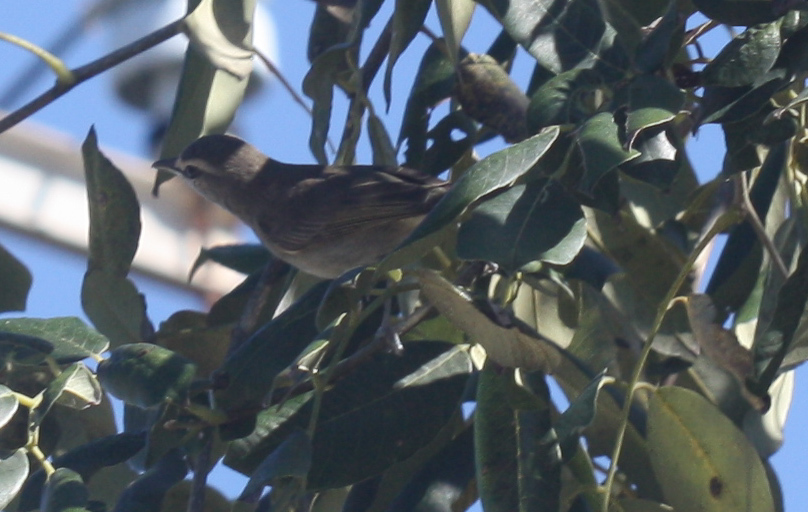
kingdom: Animalia
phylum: Chordata
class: Aves
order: Passeriformes
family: Vireonidae
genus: Vireo
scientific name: Vireo magister
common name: Yucatan vireo
